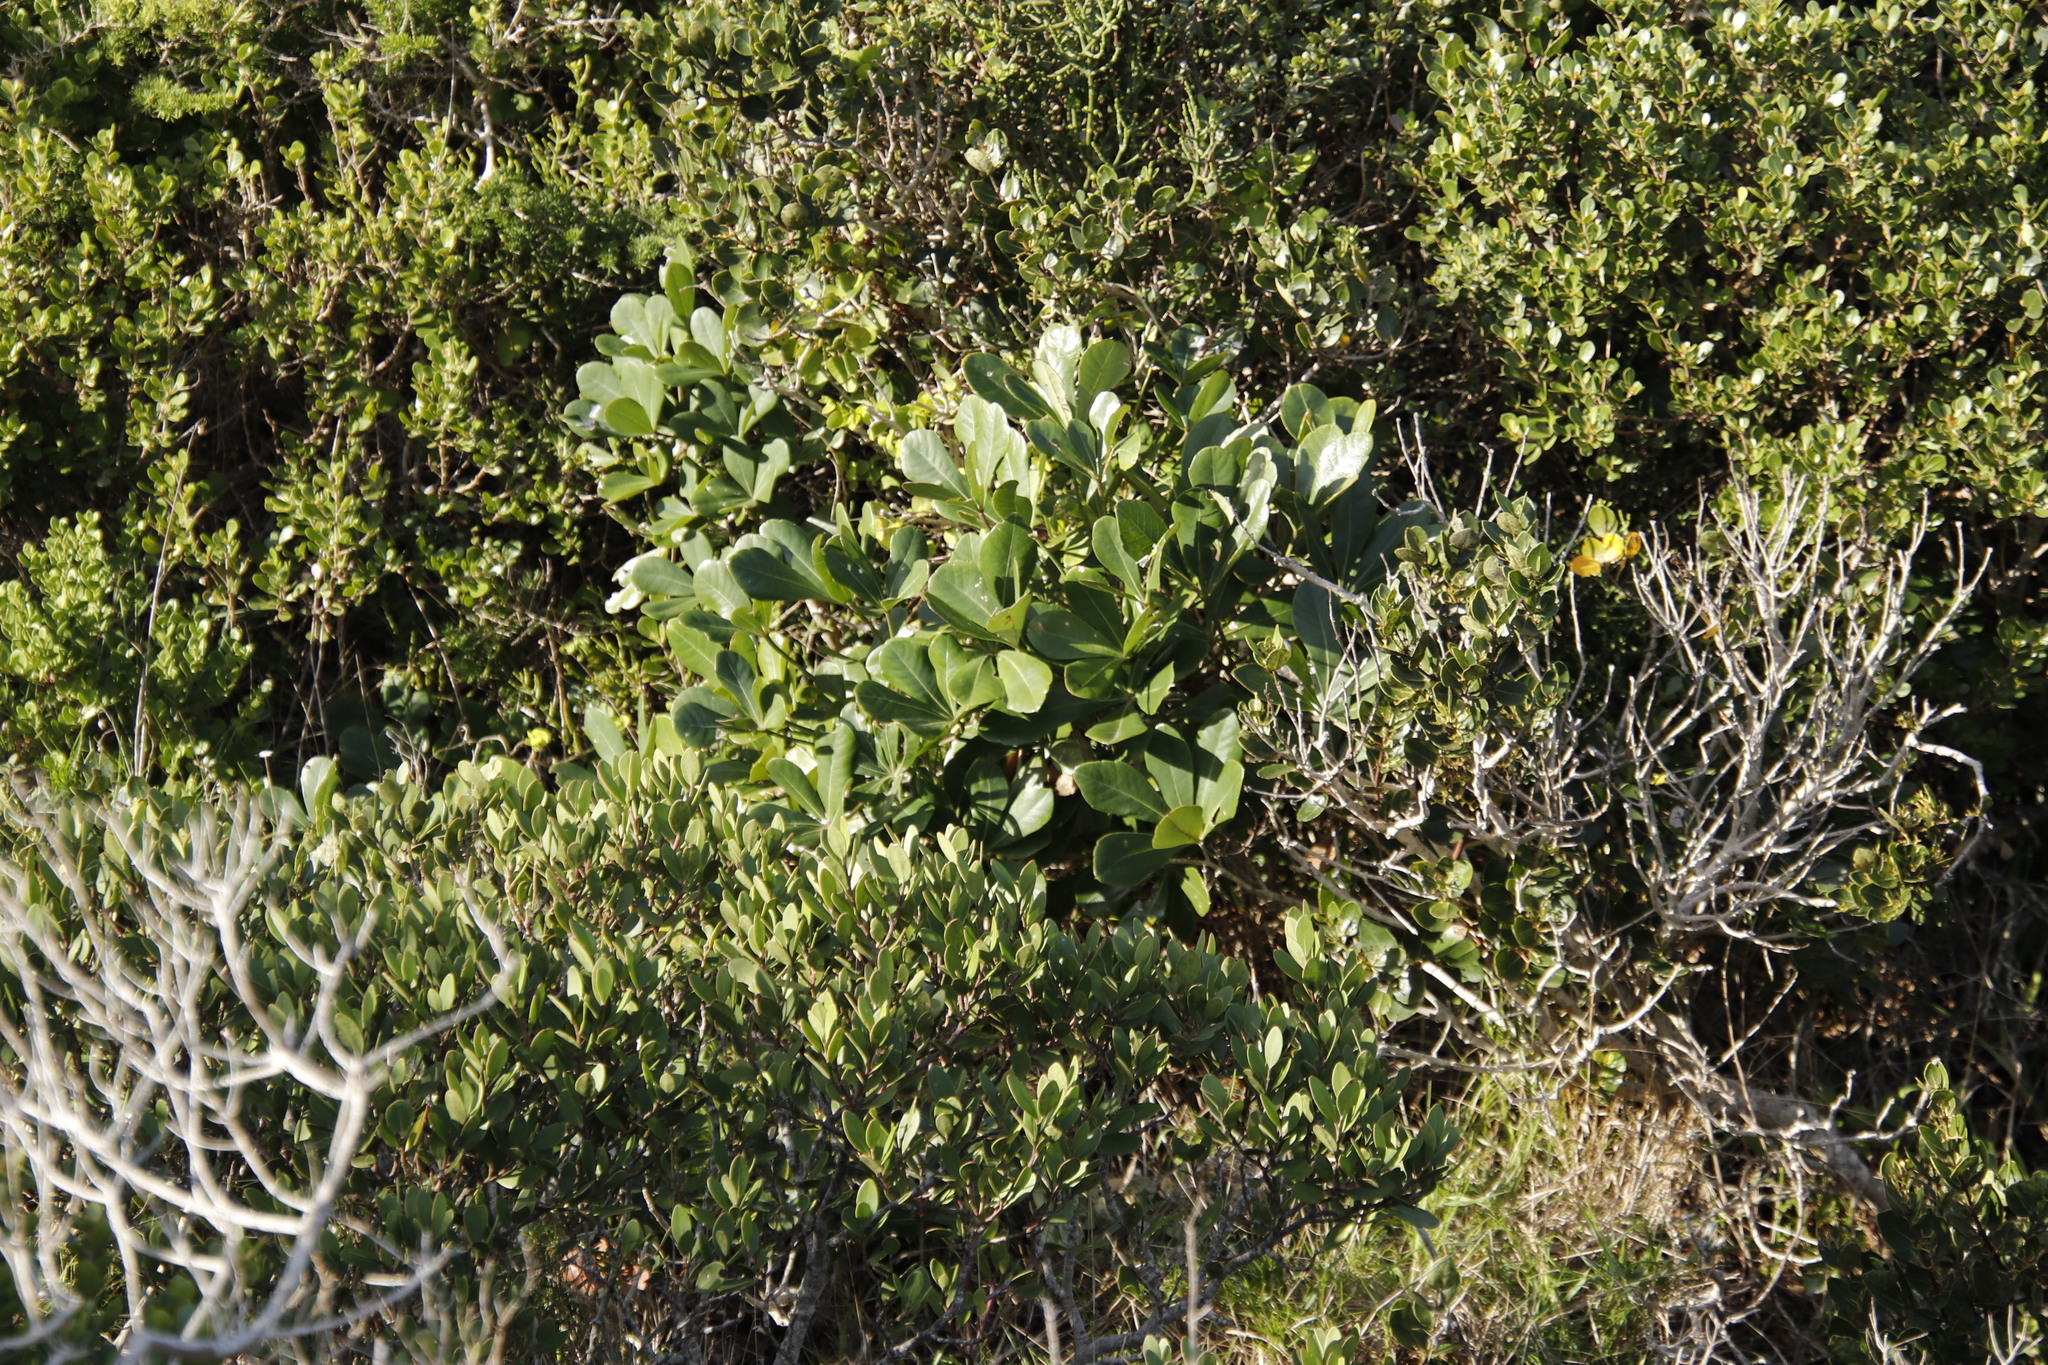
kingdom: Plantae
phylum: Tracheophyta
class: Magnoliopsida
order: Apiales
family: Araliaceae
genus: Cussonia
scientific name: Cussonia thyrsiflora
